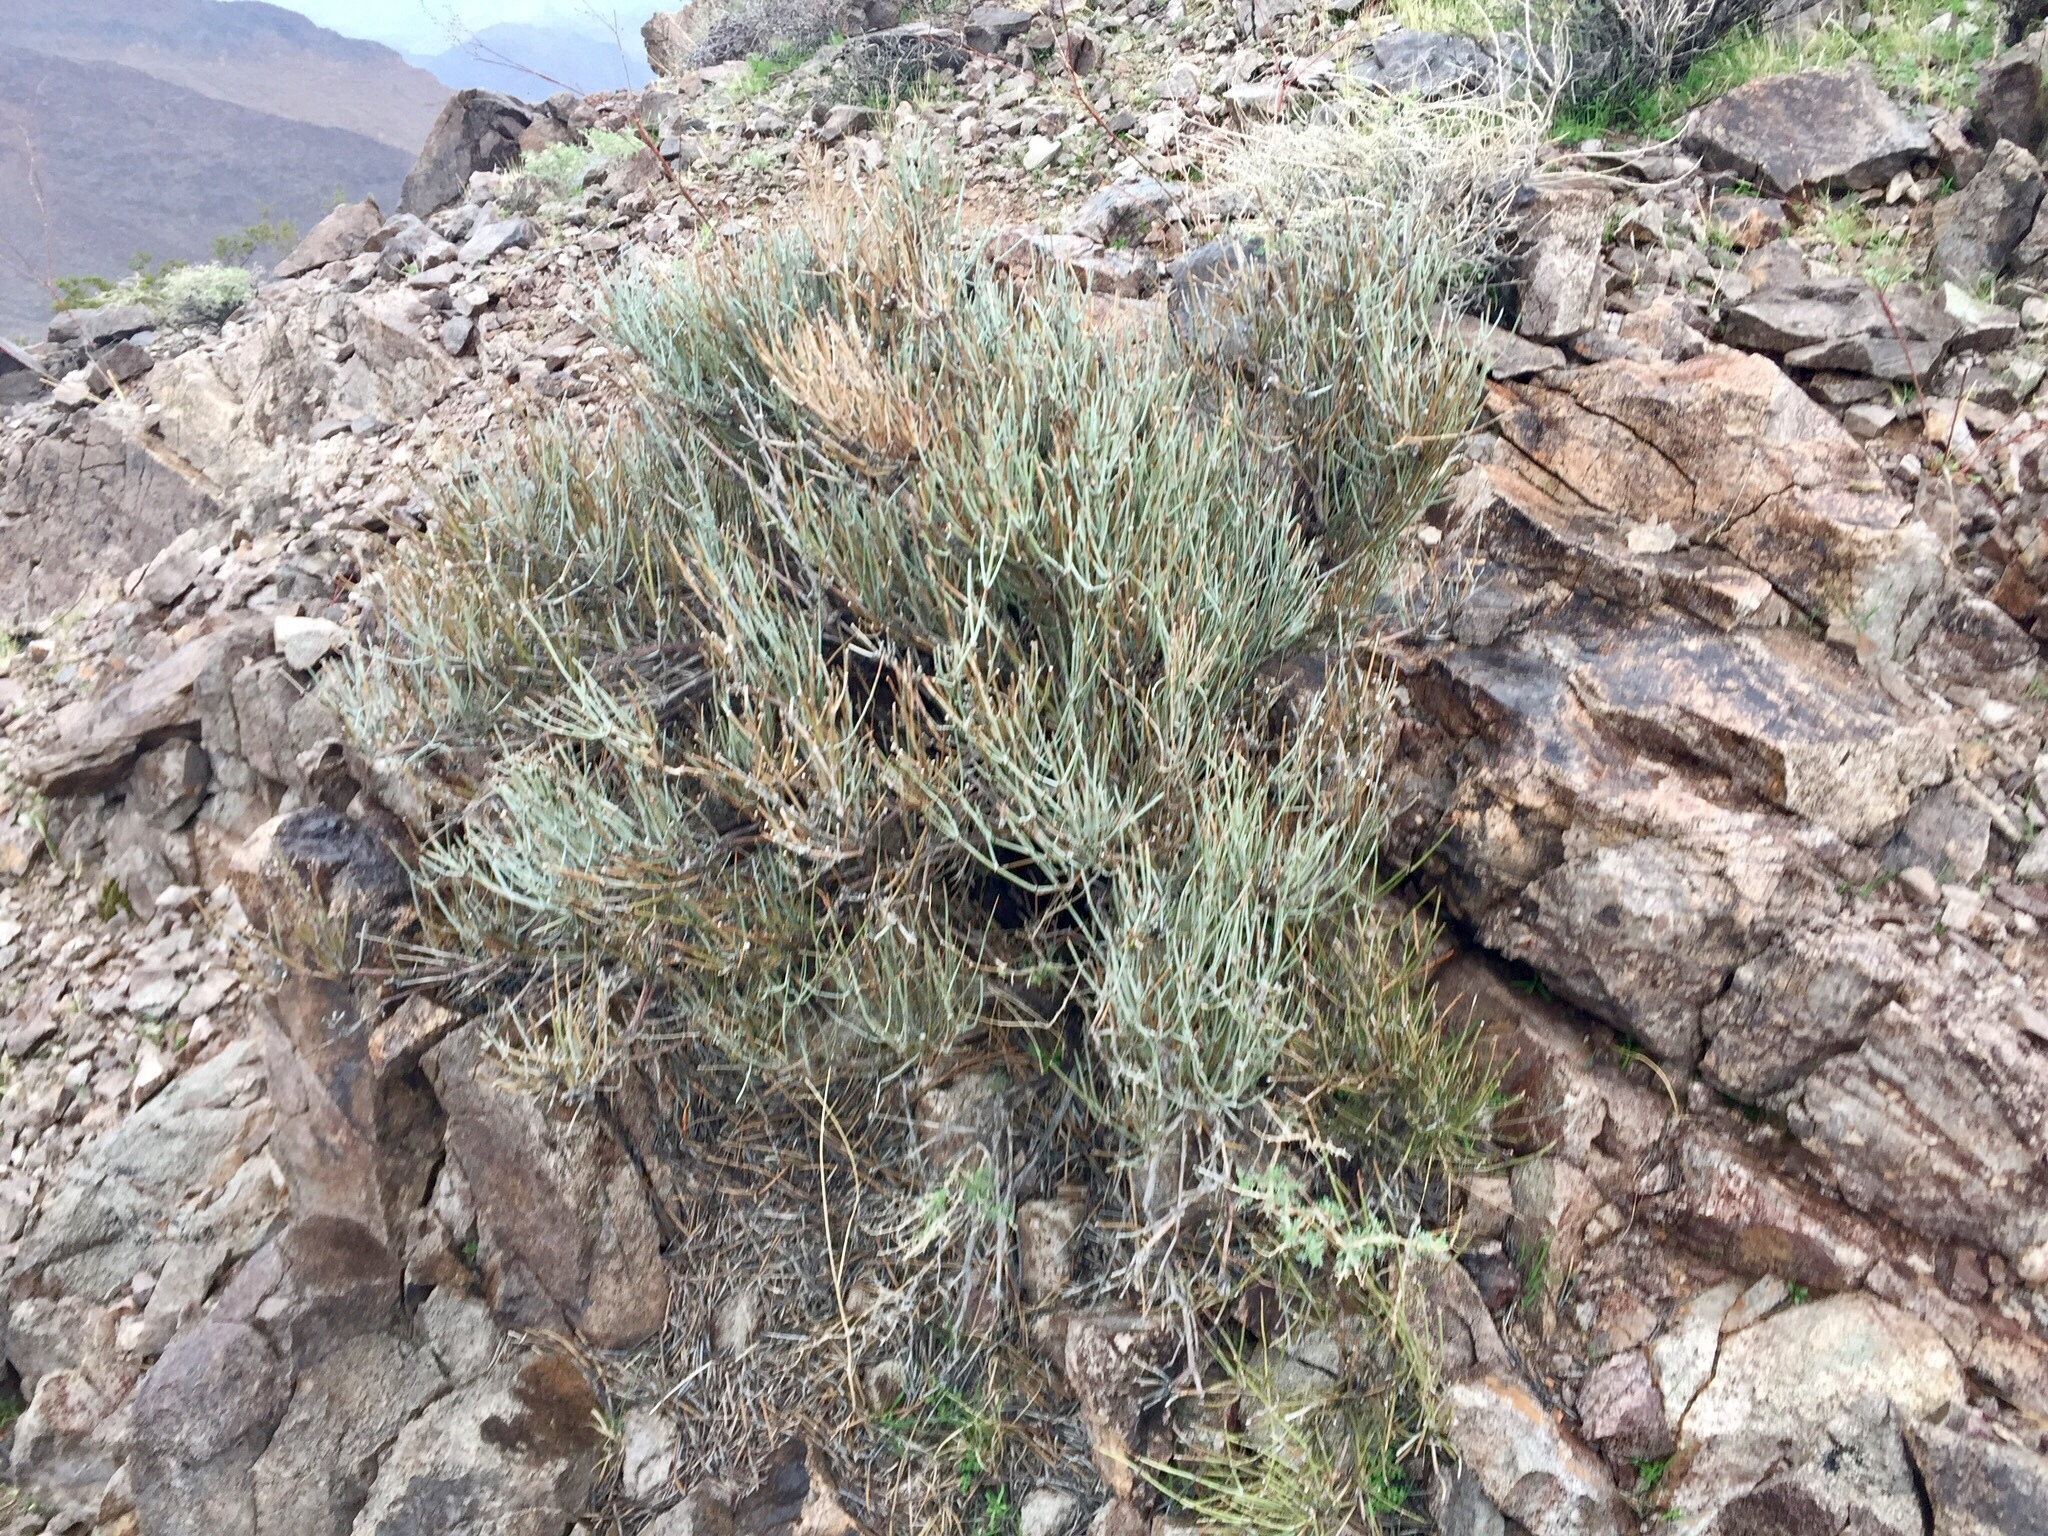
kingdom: Plantae
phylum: Tracheophyta
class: Gnetopsida
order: Ephedrales
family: Ephedraceae
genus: Ephedra
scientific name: Ephedra nevadensis
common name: Gray ephedra
